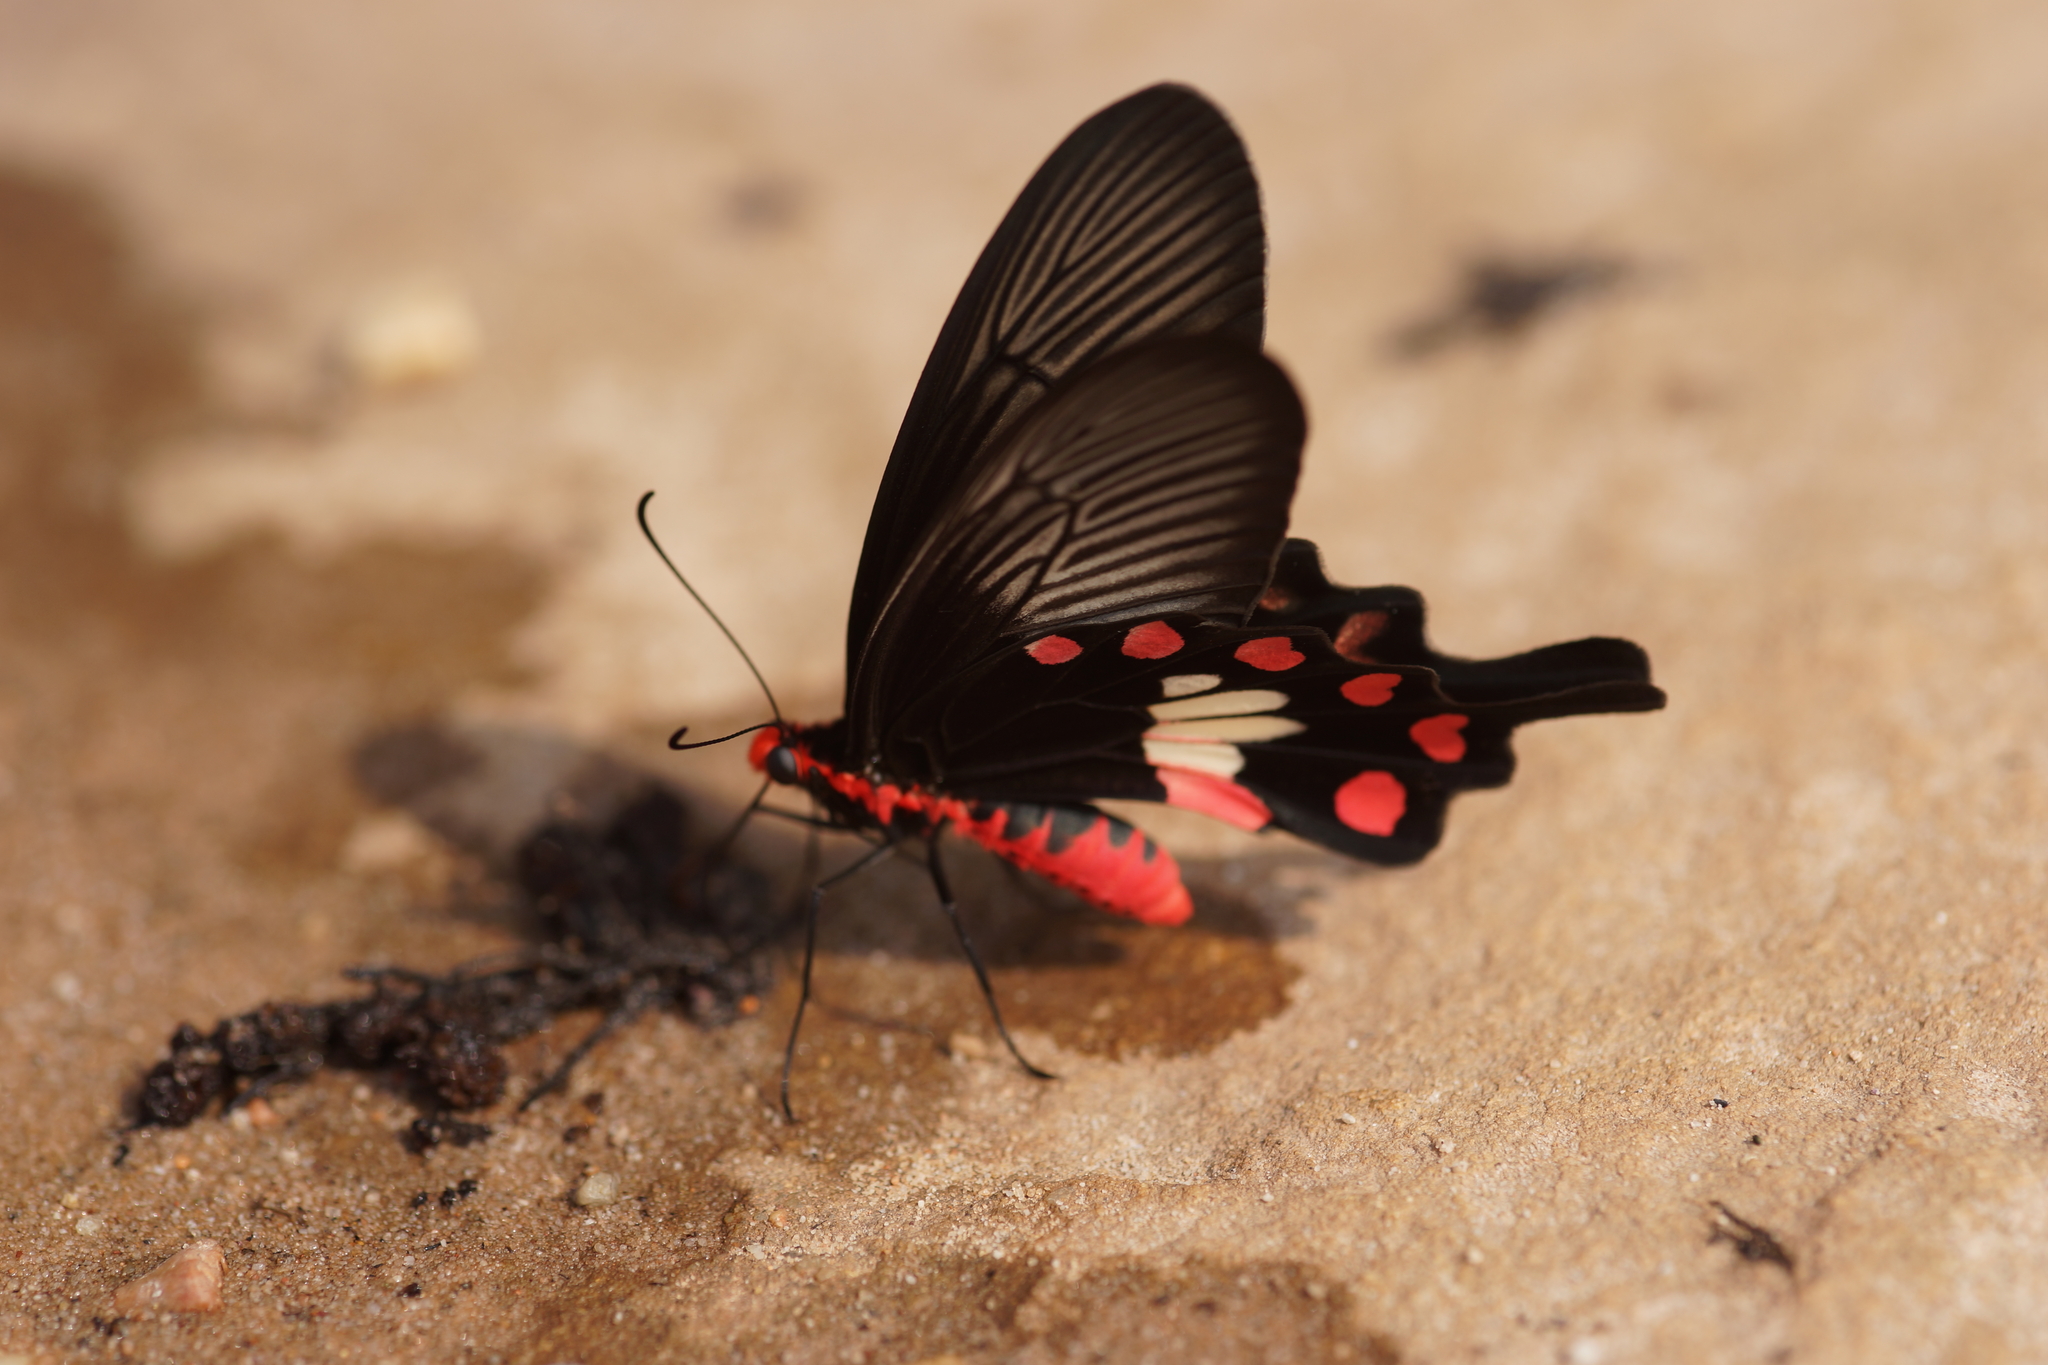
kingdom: Animalia
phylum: Arthropoda
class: Insecta
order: Lepidoptera
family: Papilionidae
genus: Pachliopta
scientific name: Pachliopta aristolochiae
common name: Common rose
